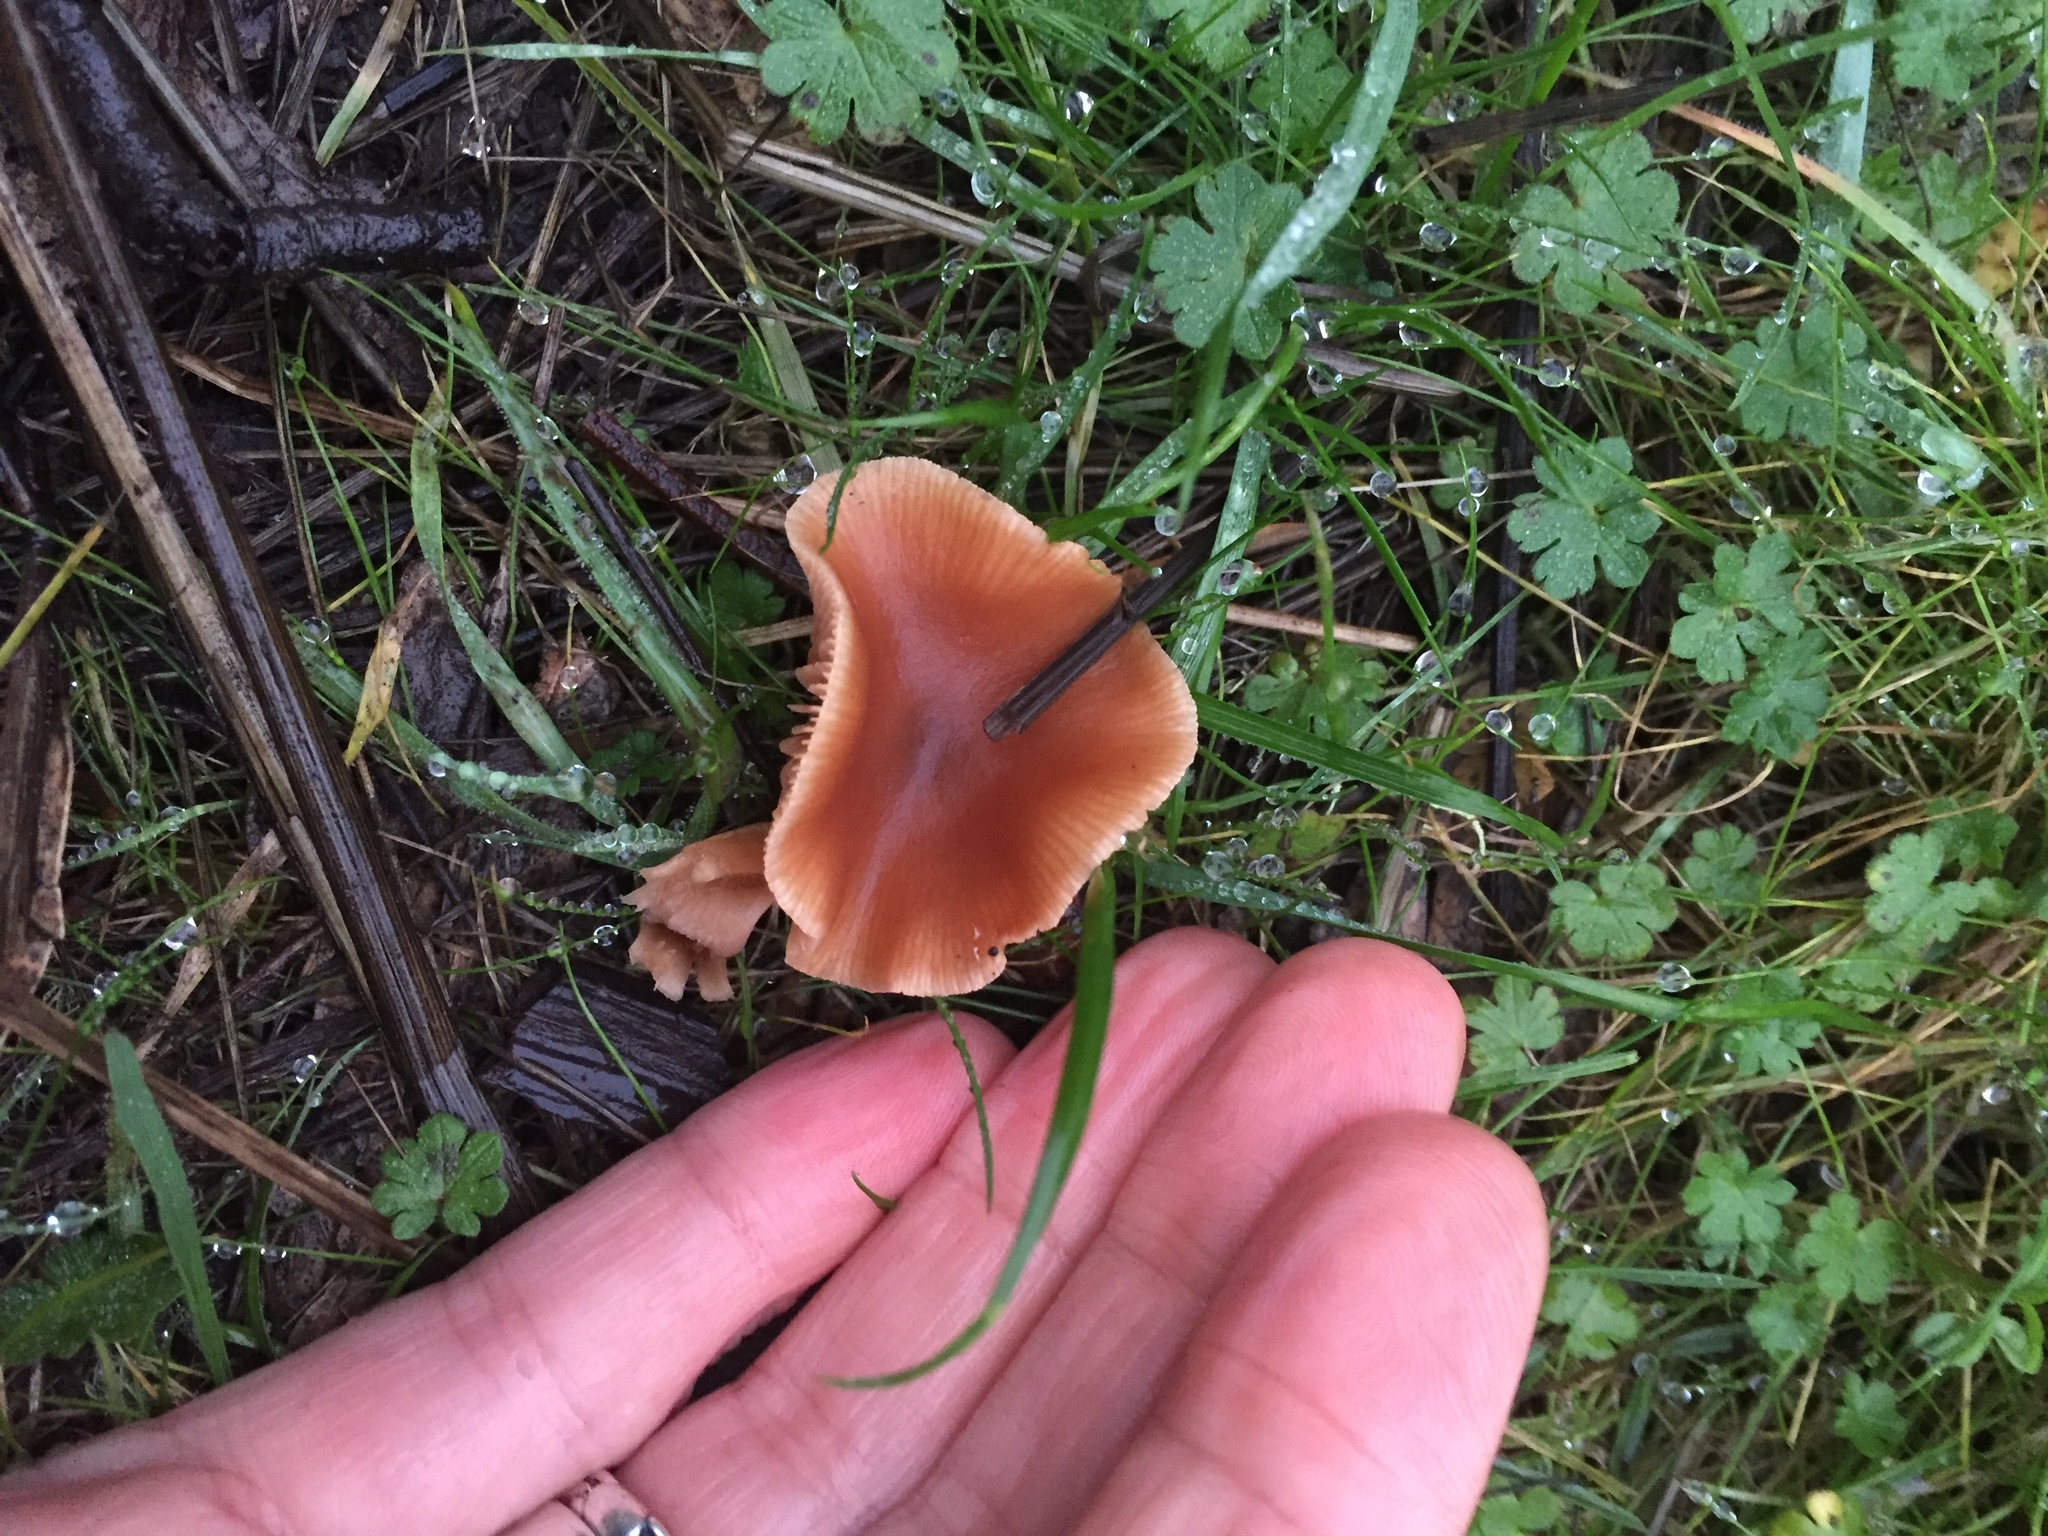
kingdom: Fungi
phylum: Basidiomycota
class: Agaricomycetes
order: Agaricales
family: Tubariaceae
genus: Tubaria
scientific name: Tubaria furfuracea
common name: Scurfy twiglet
